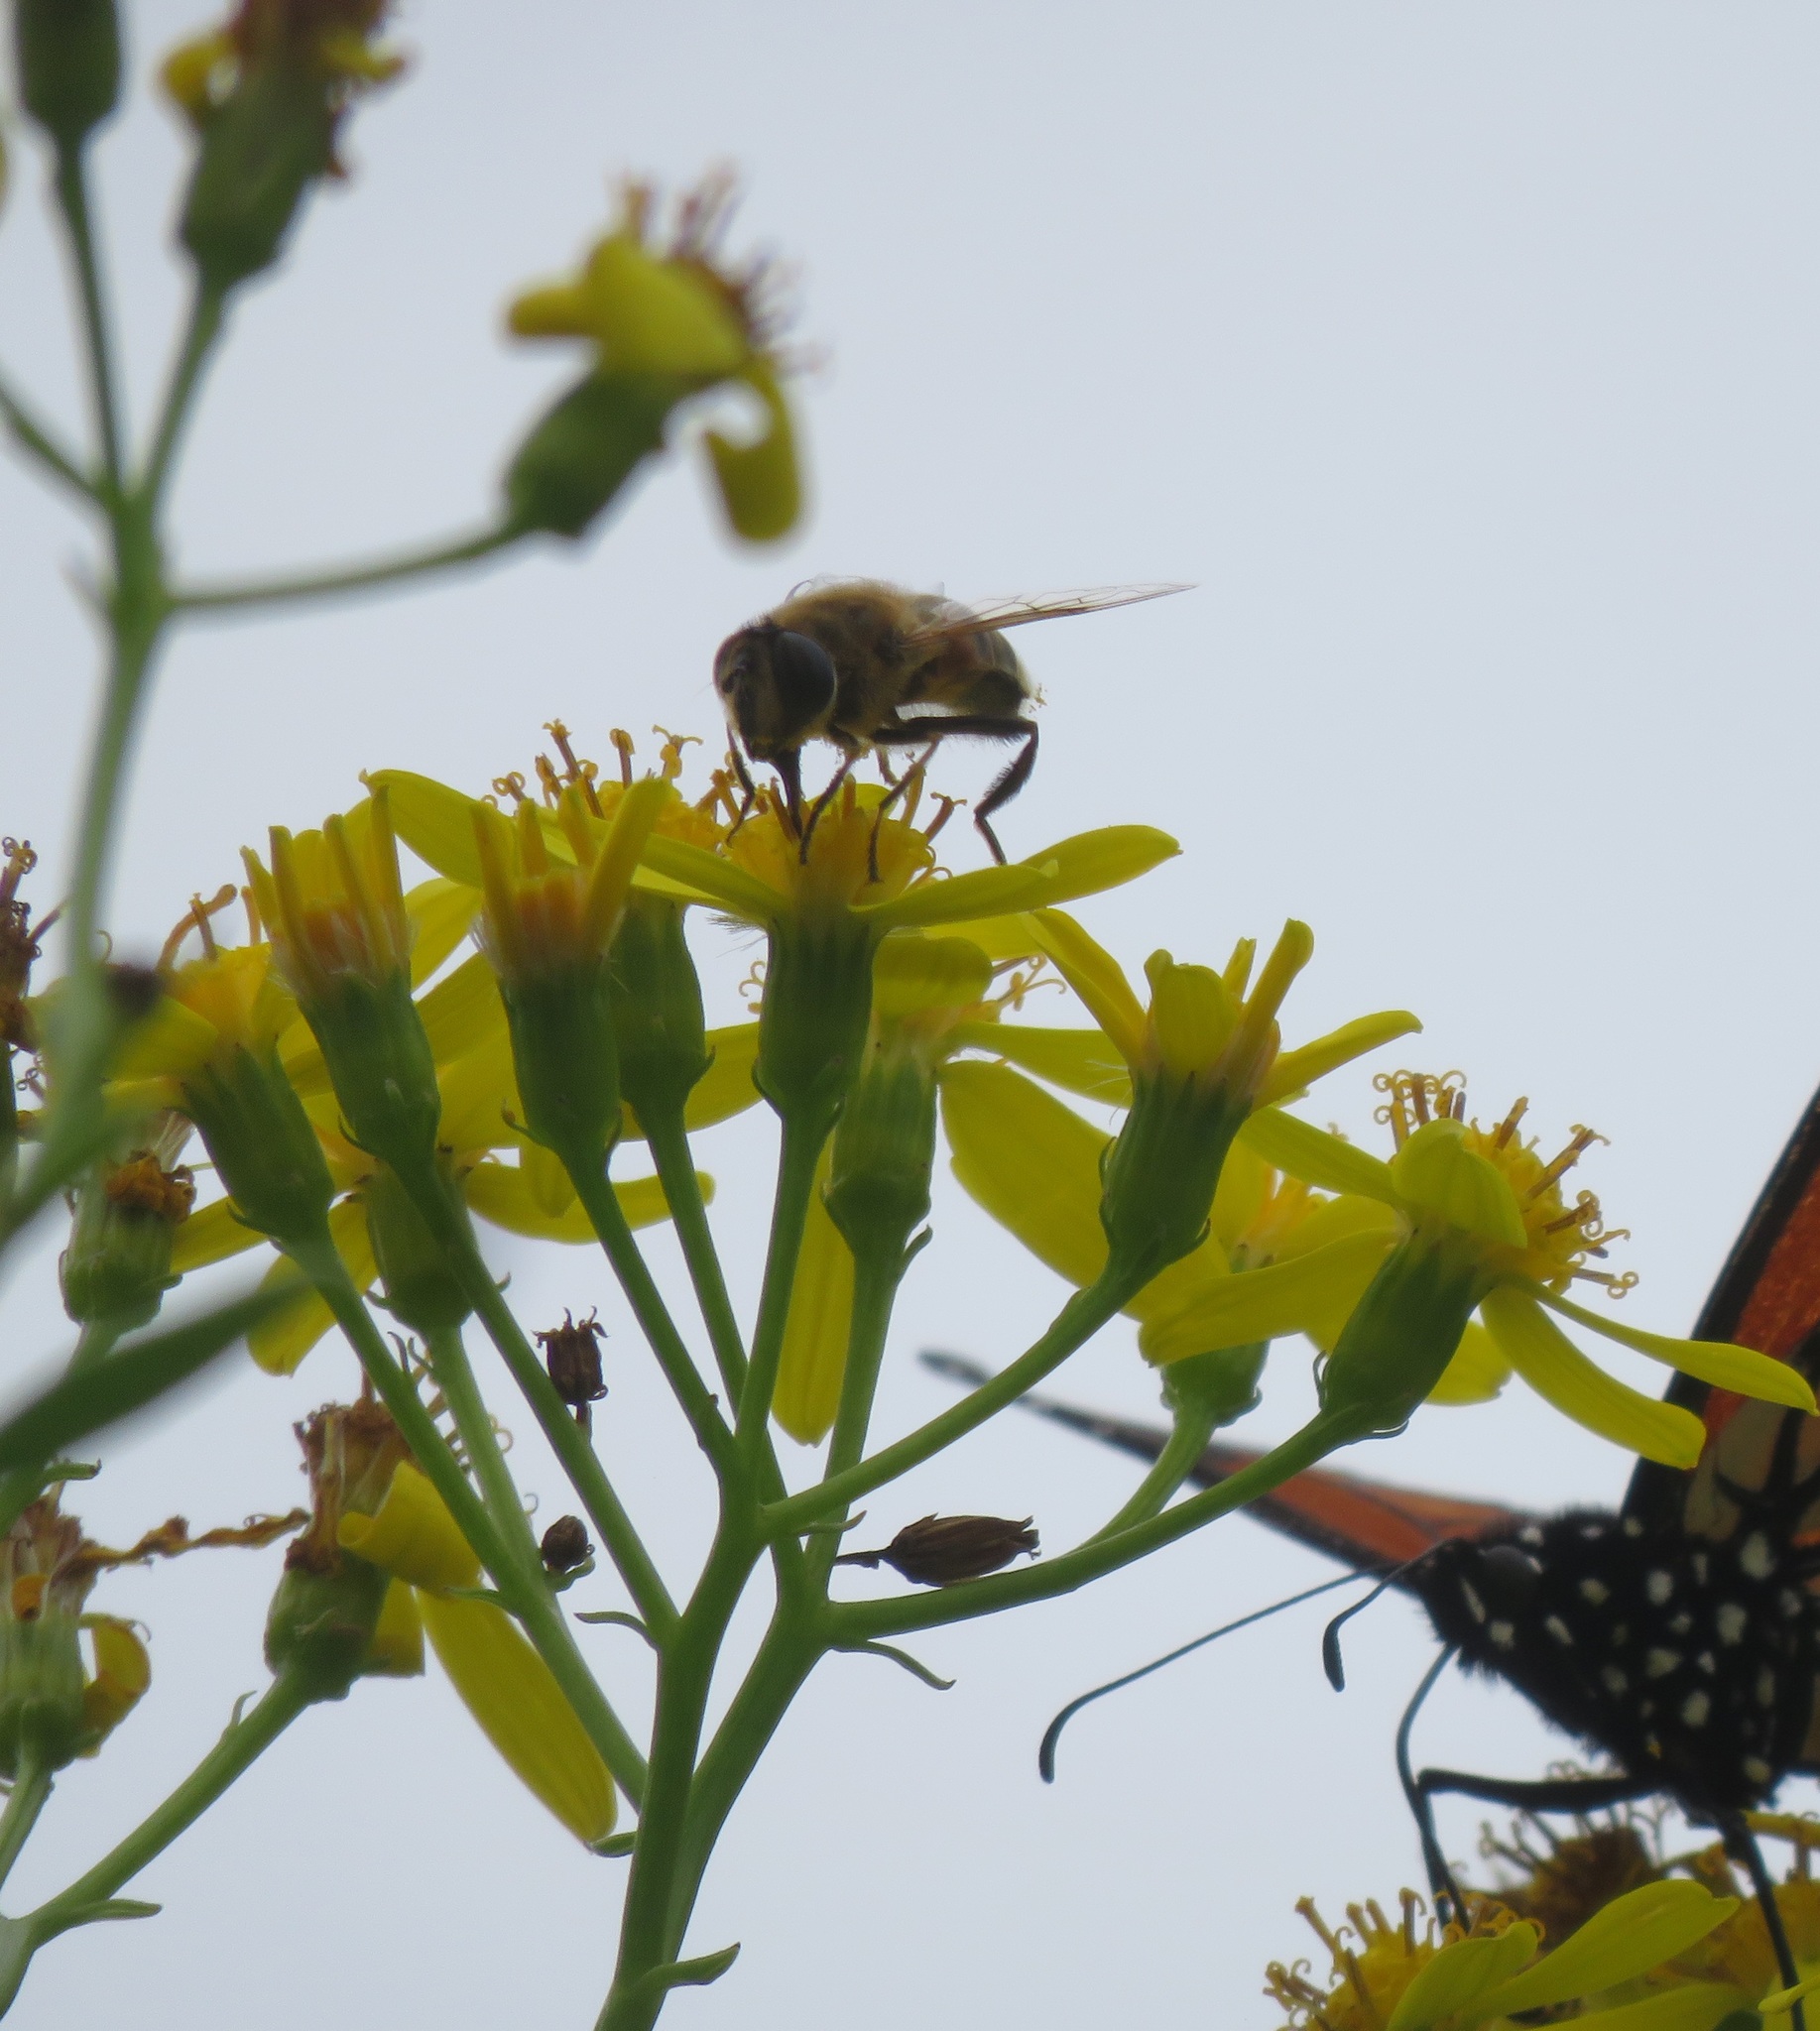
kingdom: Animalia
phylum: Arthropoda
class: Insecta
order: Diptera
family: Syrphidae
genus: Eristalis
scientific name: Eristalis tenax
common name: Drone fly
